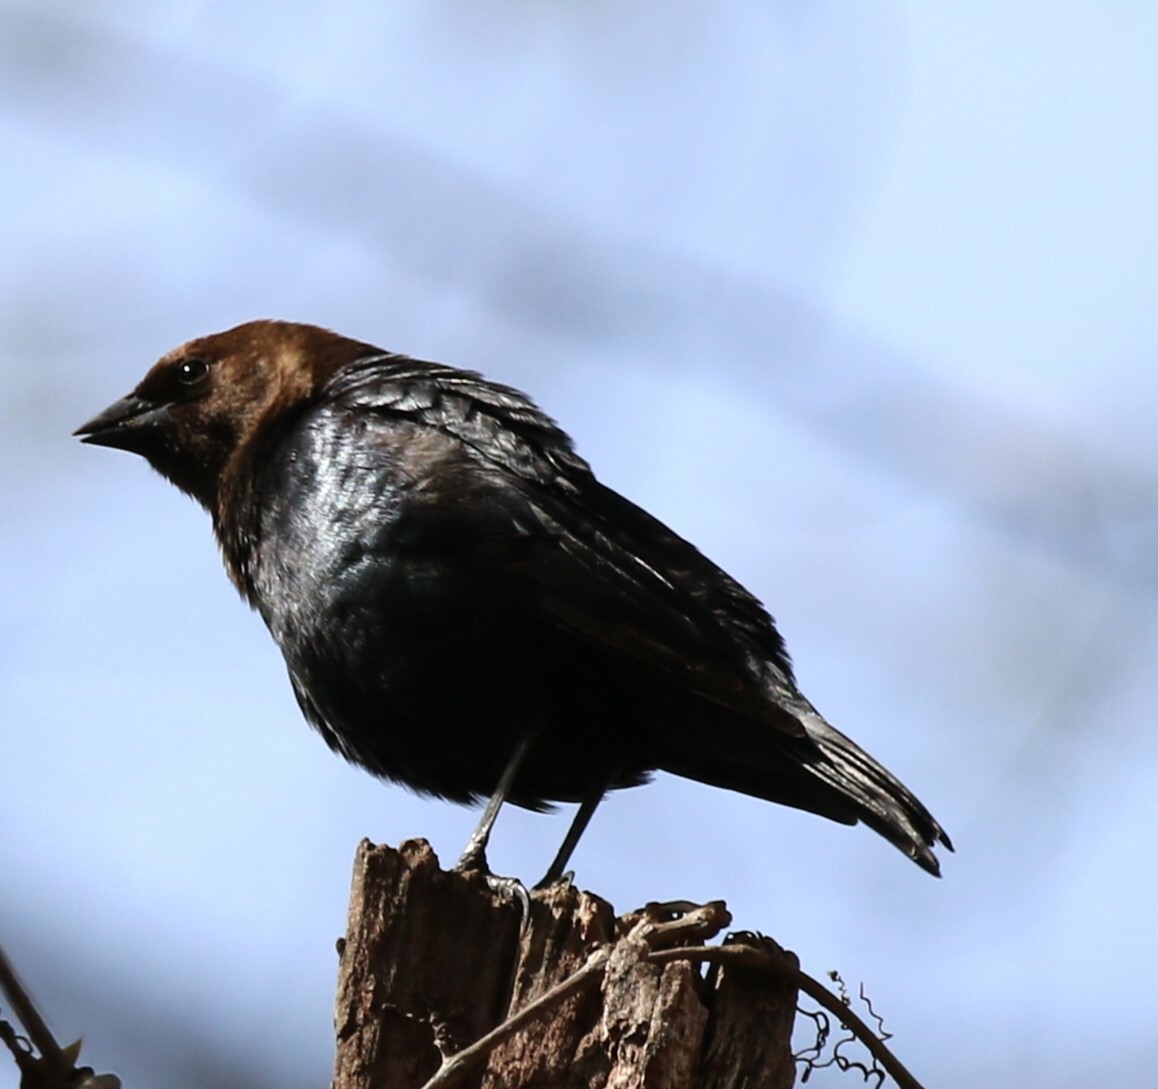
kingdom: Animalia
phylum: Chordata
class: Aves
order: Passeriformes
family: Icteridae
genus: Molothrus
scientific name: Molothrus ater
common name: Brown-headed cowbird
